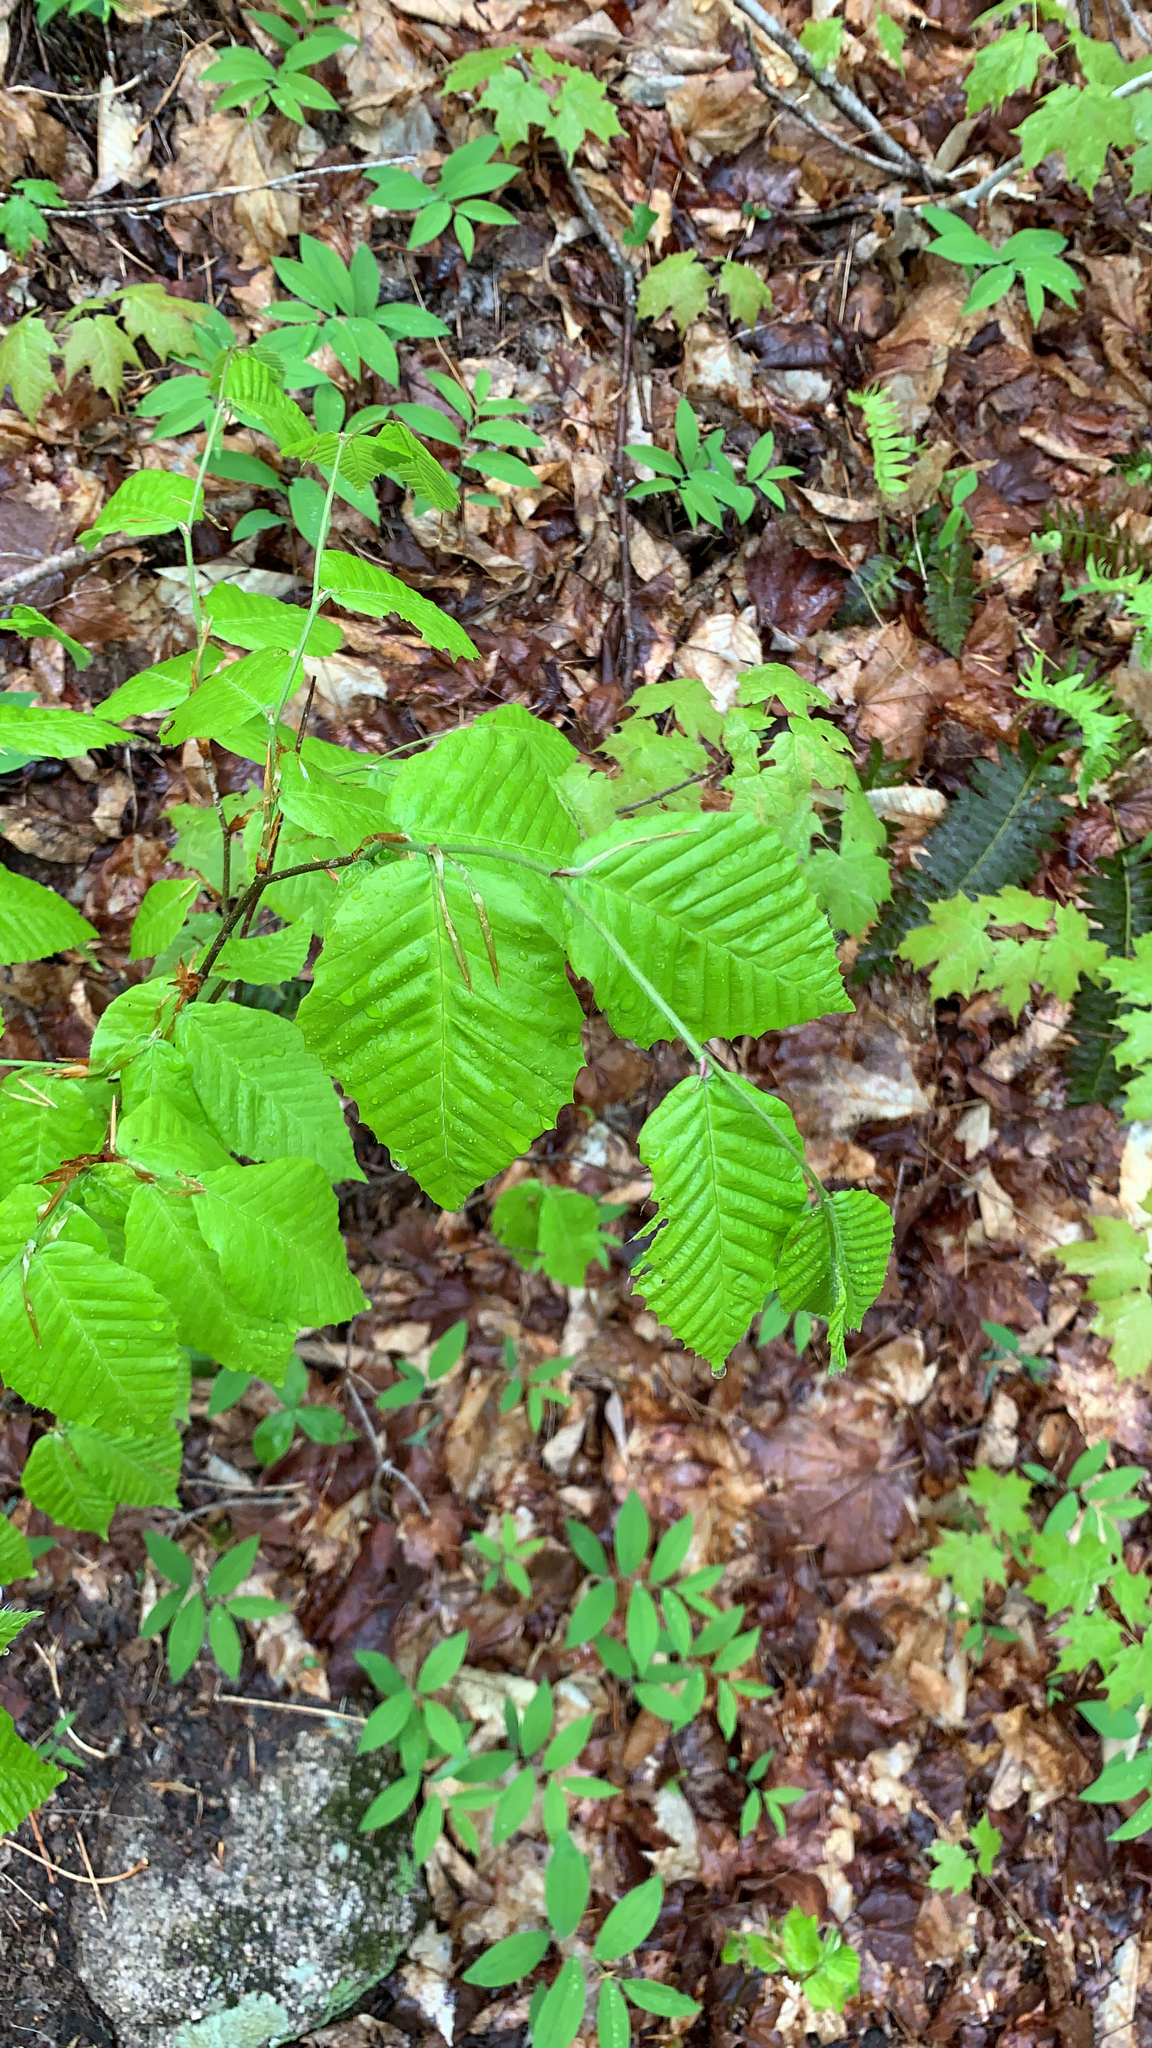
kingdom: Plantae
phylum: Tracheophyta
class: Magnoliopsida
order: Fagales
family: Fagaceae
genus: Fagus
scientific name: Fagus grandifolia
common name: American beech
